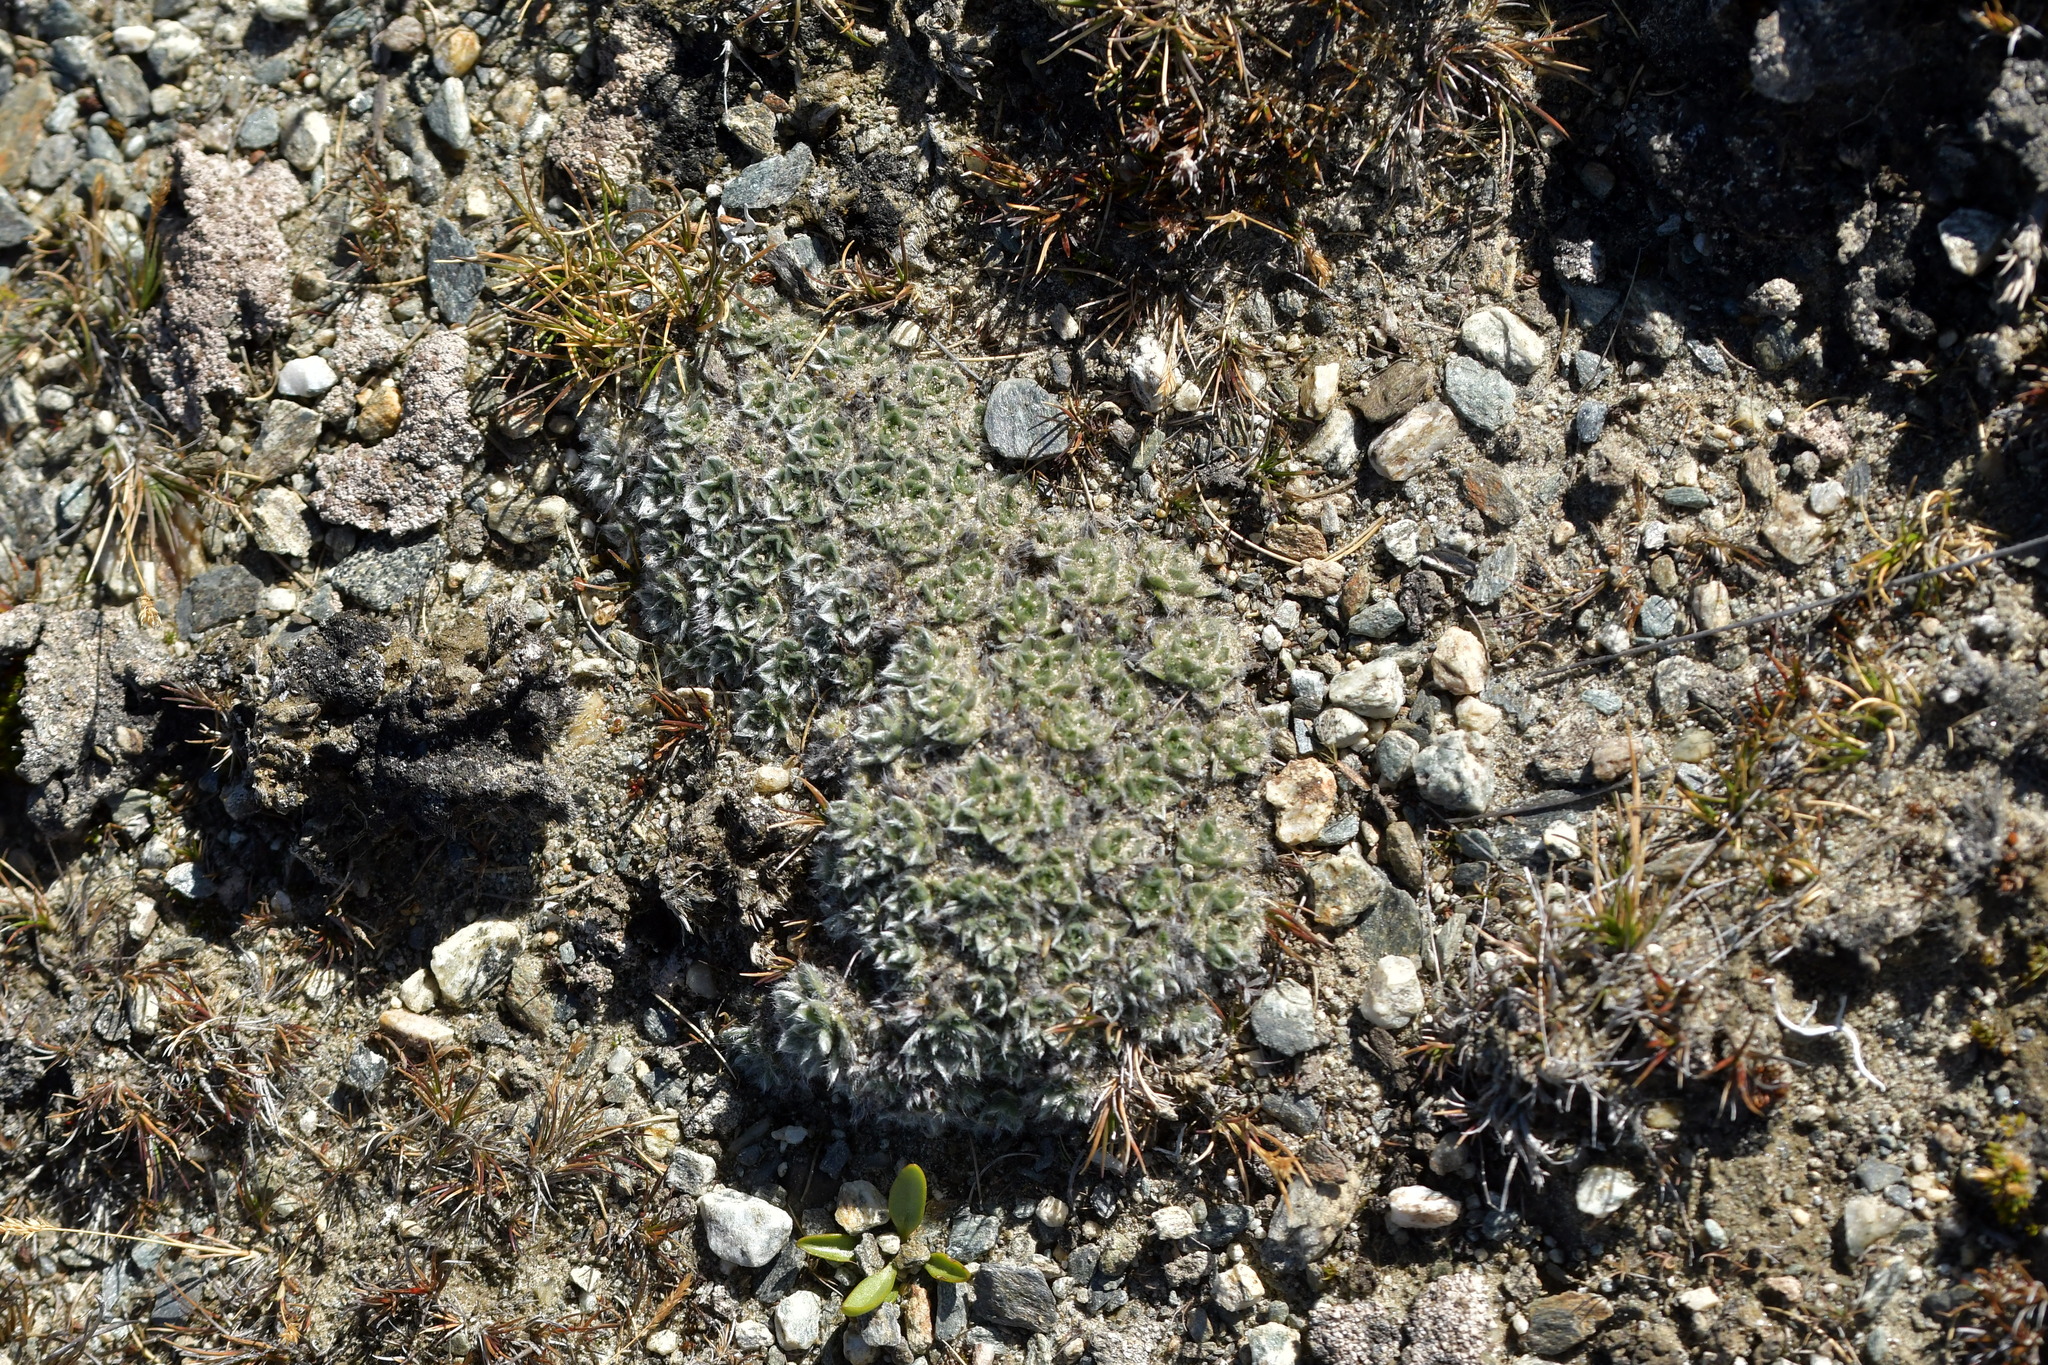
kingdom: Plantae
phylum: Tracheophyta
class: Magnoliopsida
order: Boraginales
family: Boraginaceae
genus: Myosotis
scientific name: Myosotis pulvinaris
